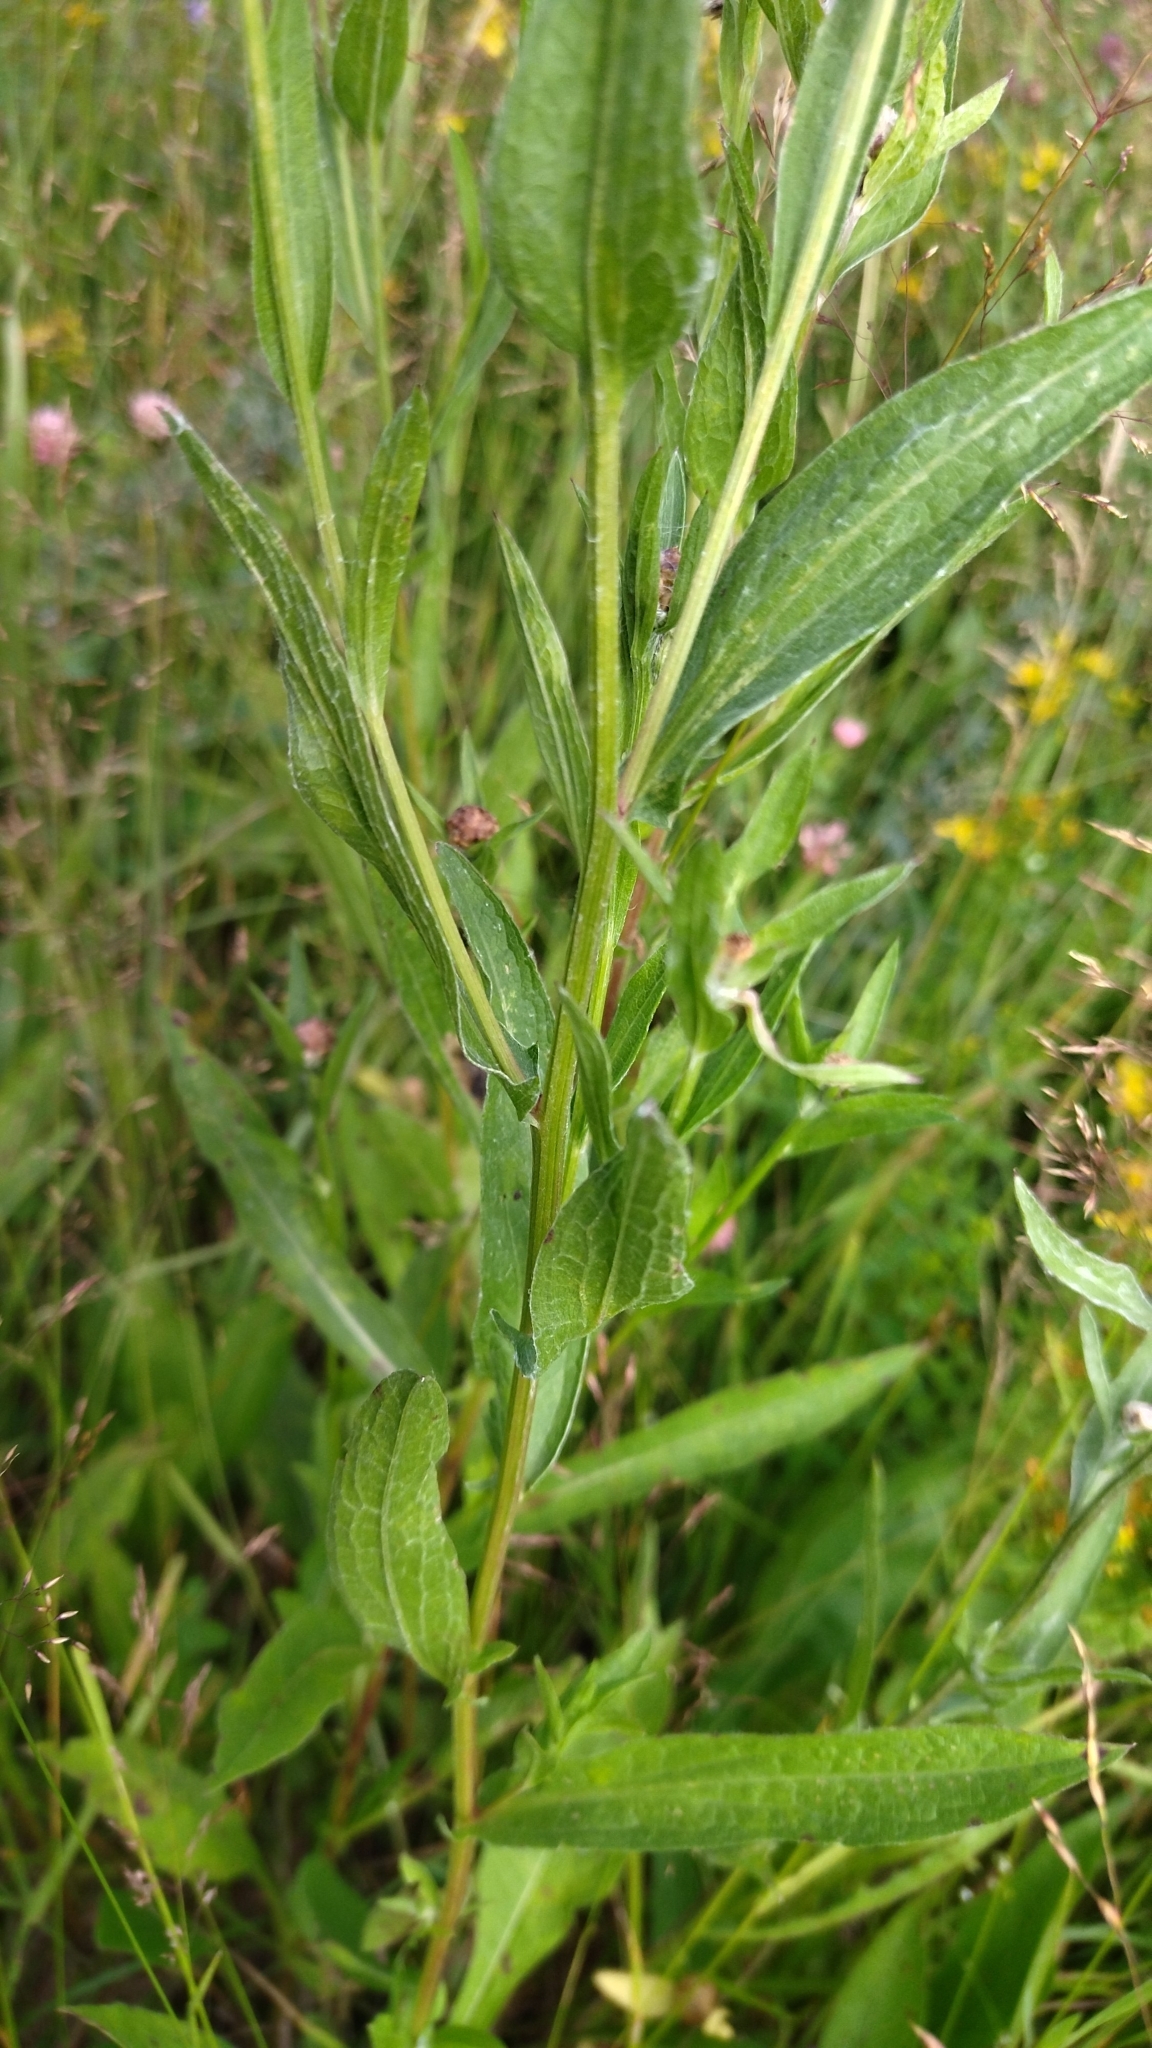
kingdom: Plantae
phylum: Tracheophyta
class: Magnoliopsida
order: Asterales
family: Asteraceae
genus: Centaurea
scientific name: Centaurea jacea
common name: Brown knapweed
